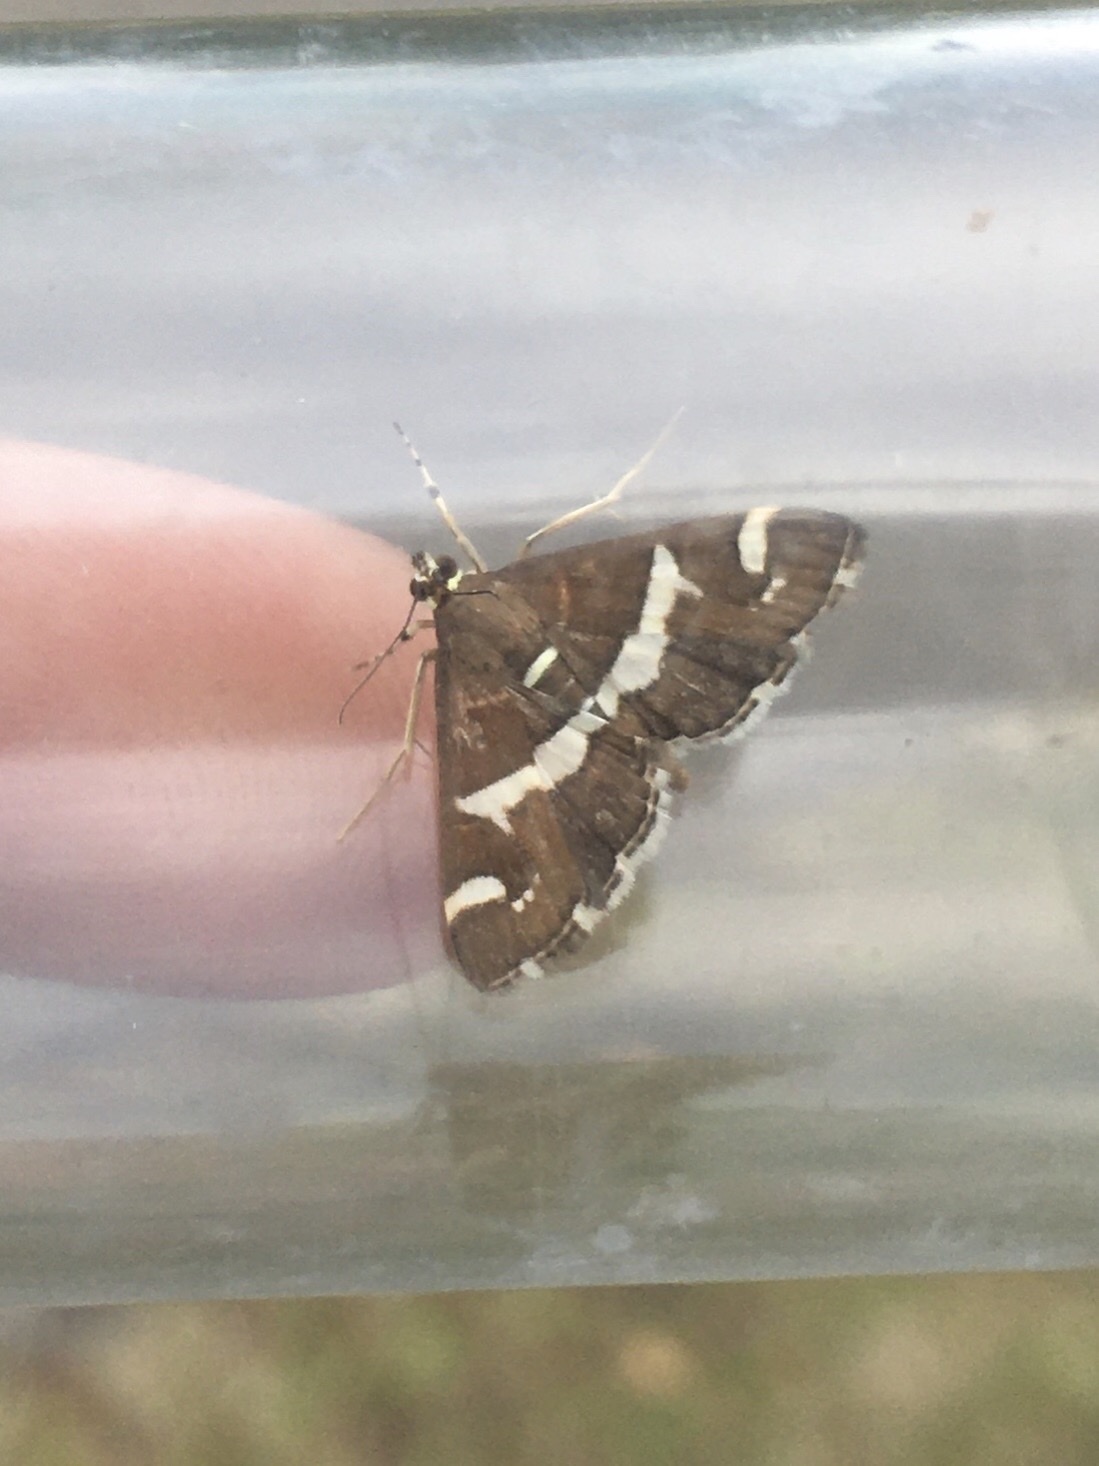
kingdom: Animalia
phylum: Arthropoda
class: Insecta
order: Lepidoptera
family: Crambidae
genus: Spoladea
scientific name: Spoladea recurvalis
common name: Beet webworm moth
